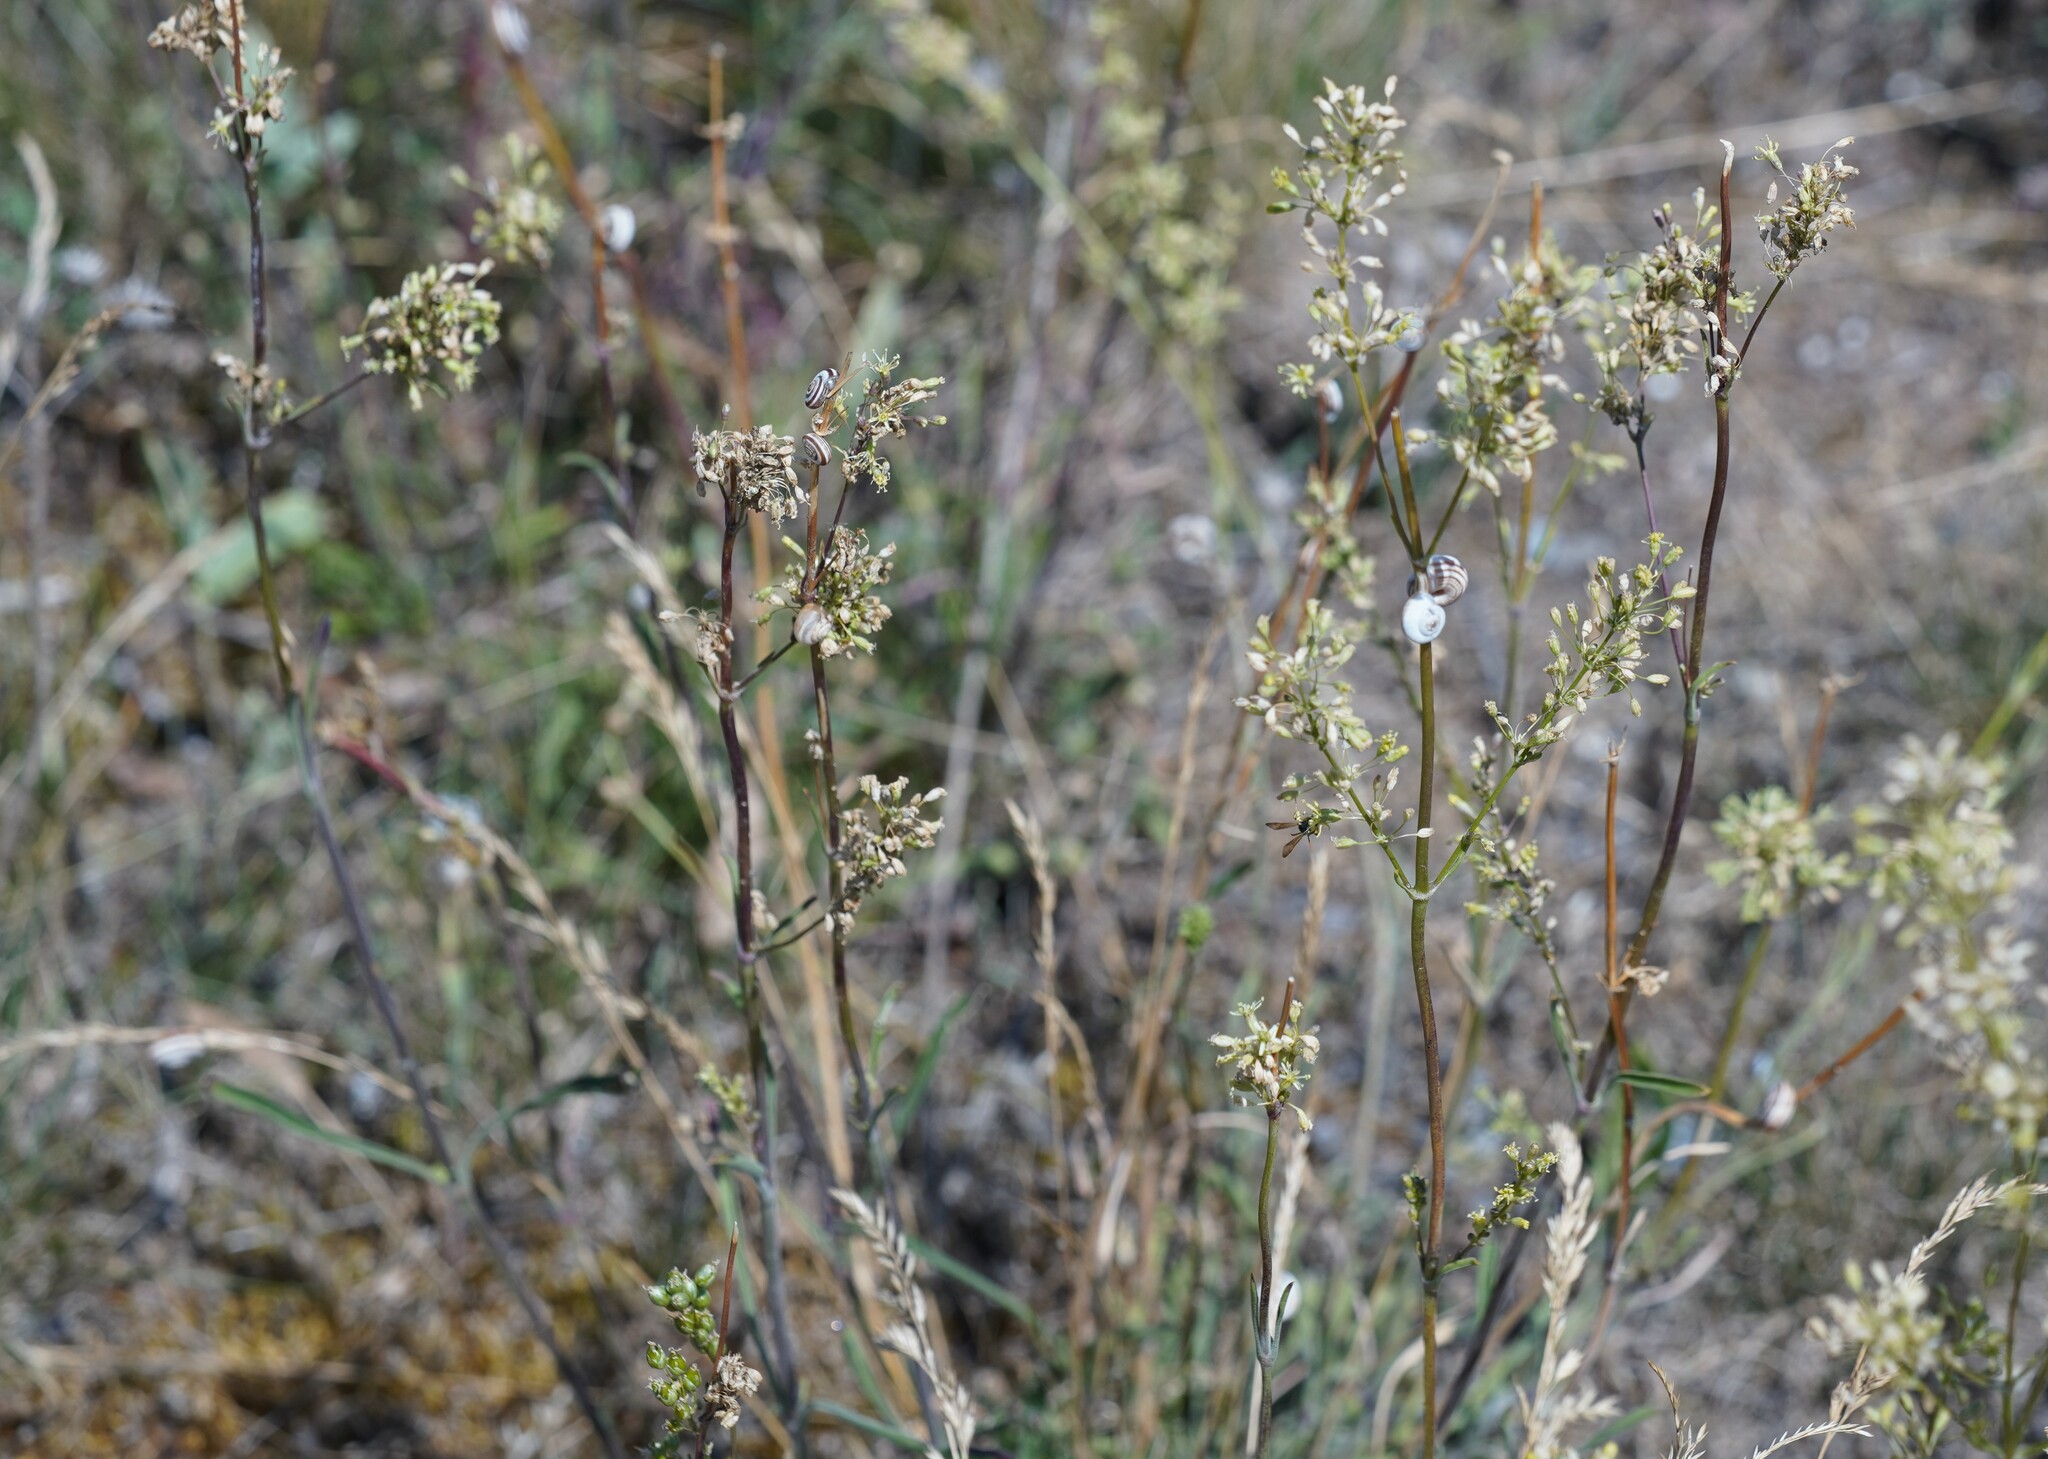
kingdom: Plantae
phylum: Tracheophyta
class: Magnoliopsida
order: Caryophyllales
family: Caryophyllaceae
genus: Silene
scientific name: Silene otites
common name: Spanish catchfly
